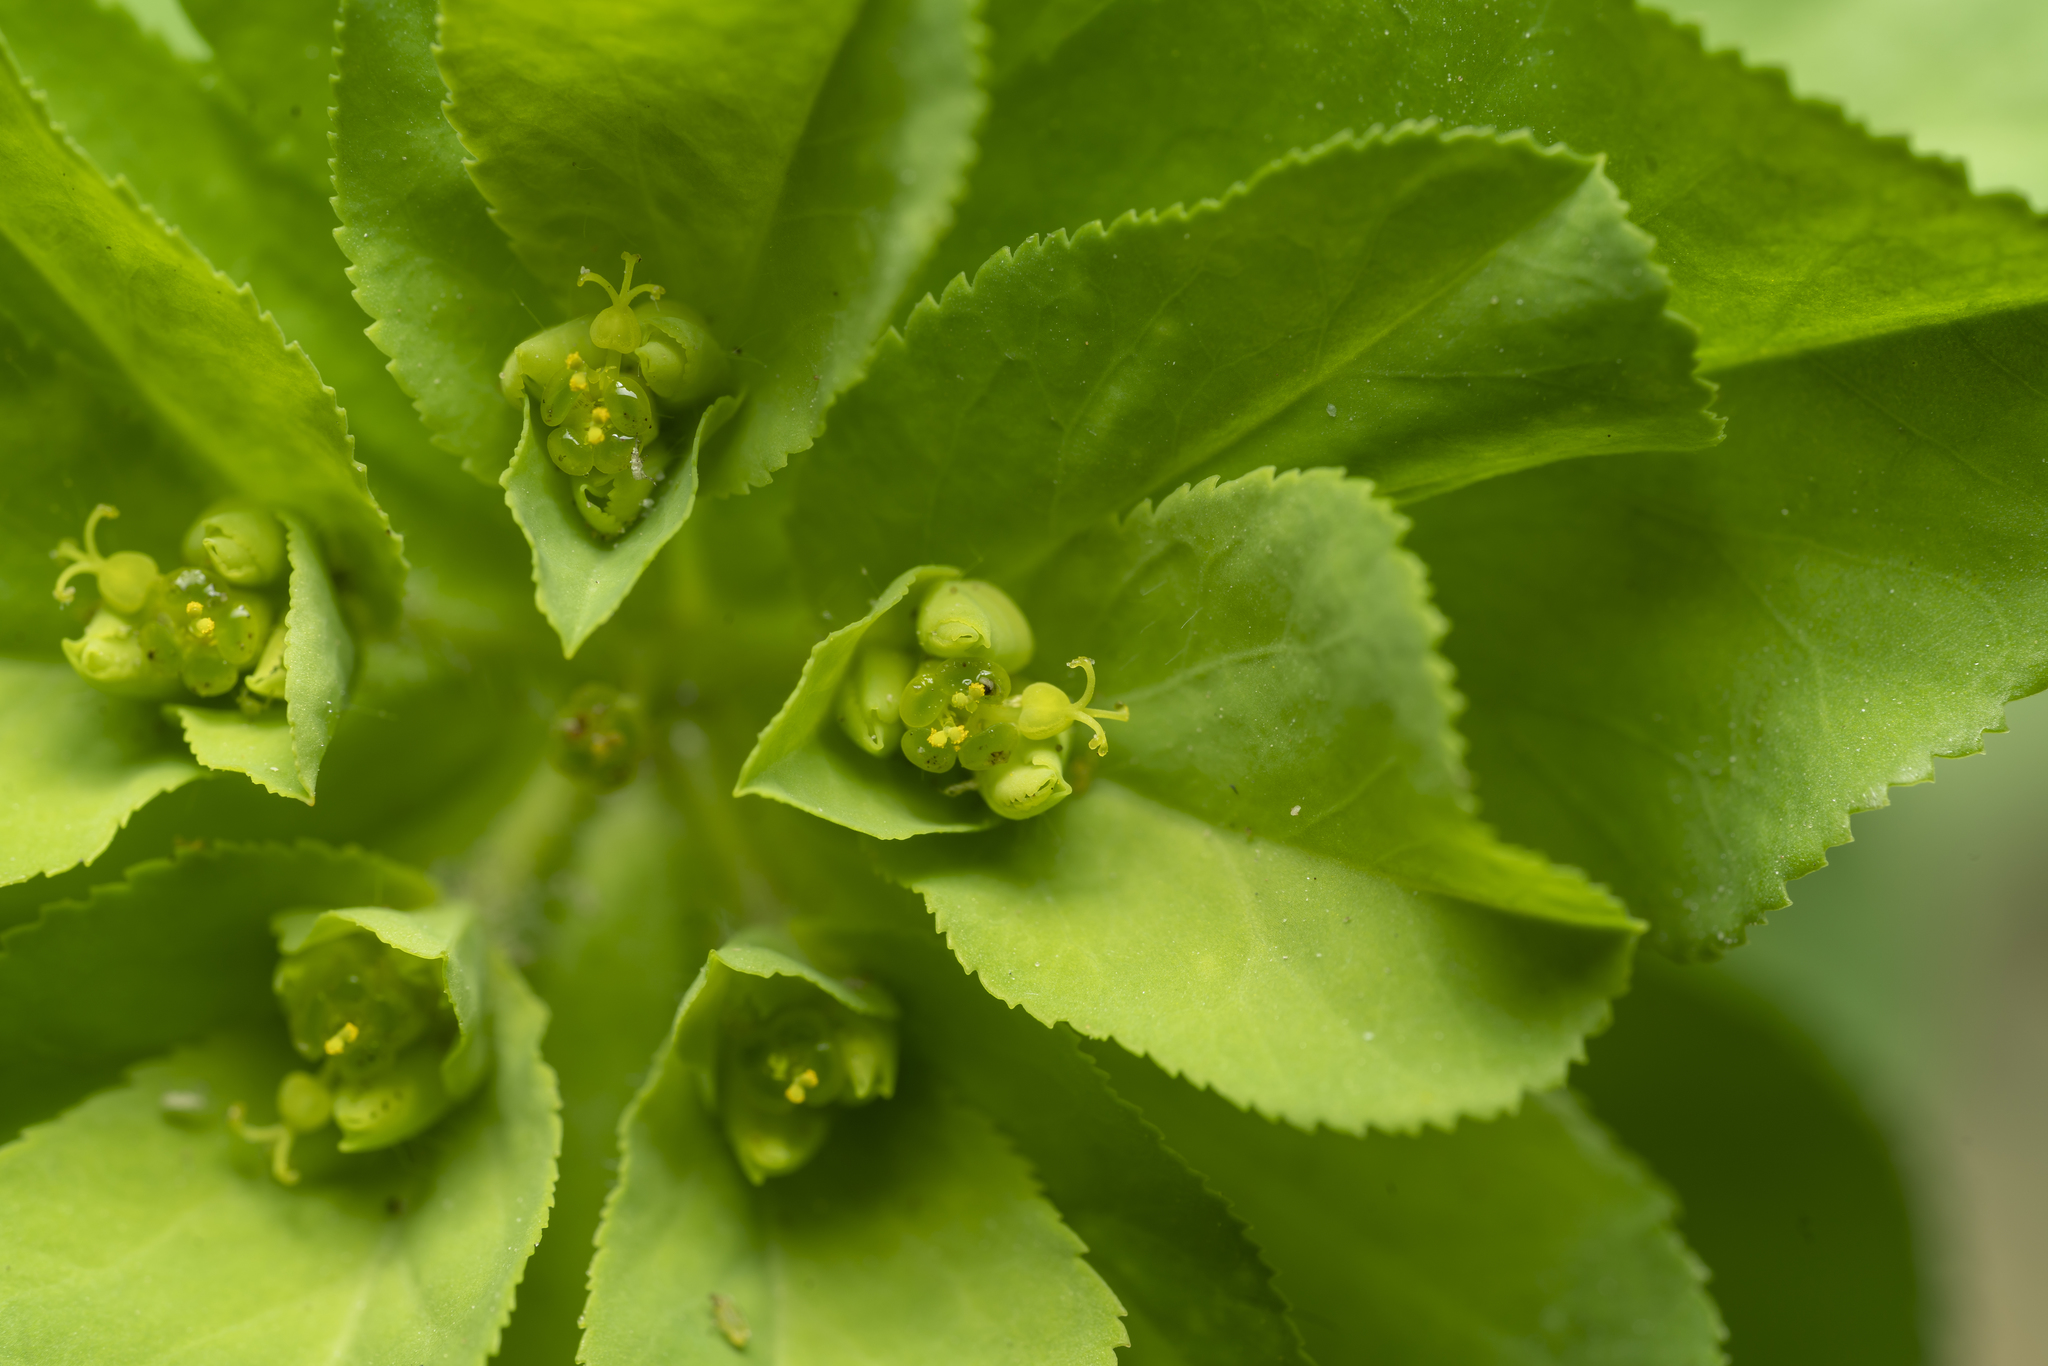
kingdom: Plantae
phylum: Tracheophyta
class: Magnoliopsida
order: Malpighiales
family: Euphorbiaceae
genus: Euphorbia
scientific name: Euphorbia helioscopia
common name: Sun spurge
